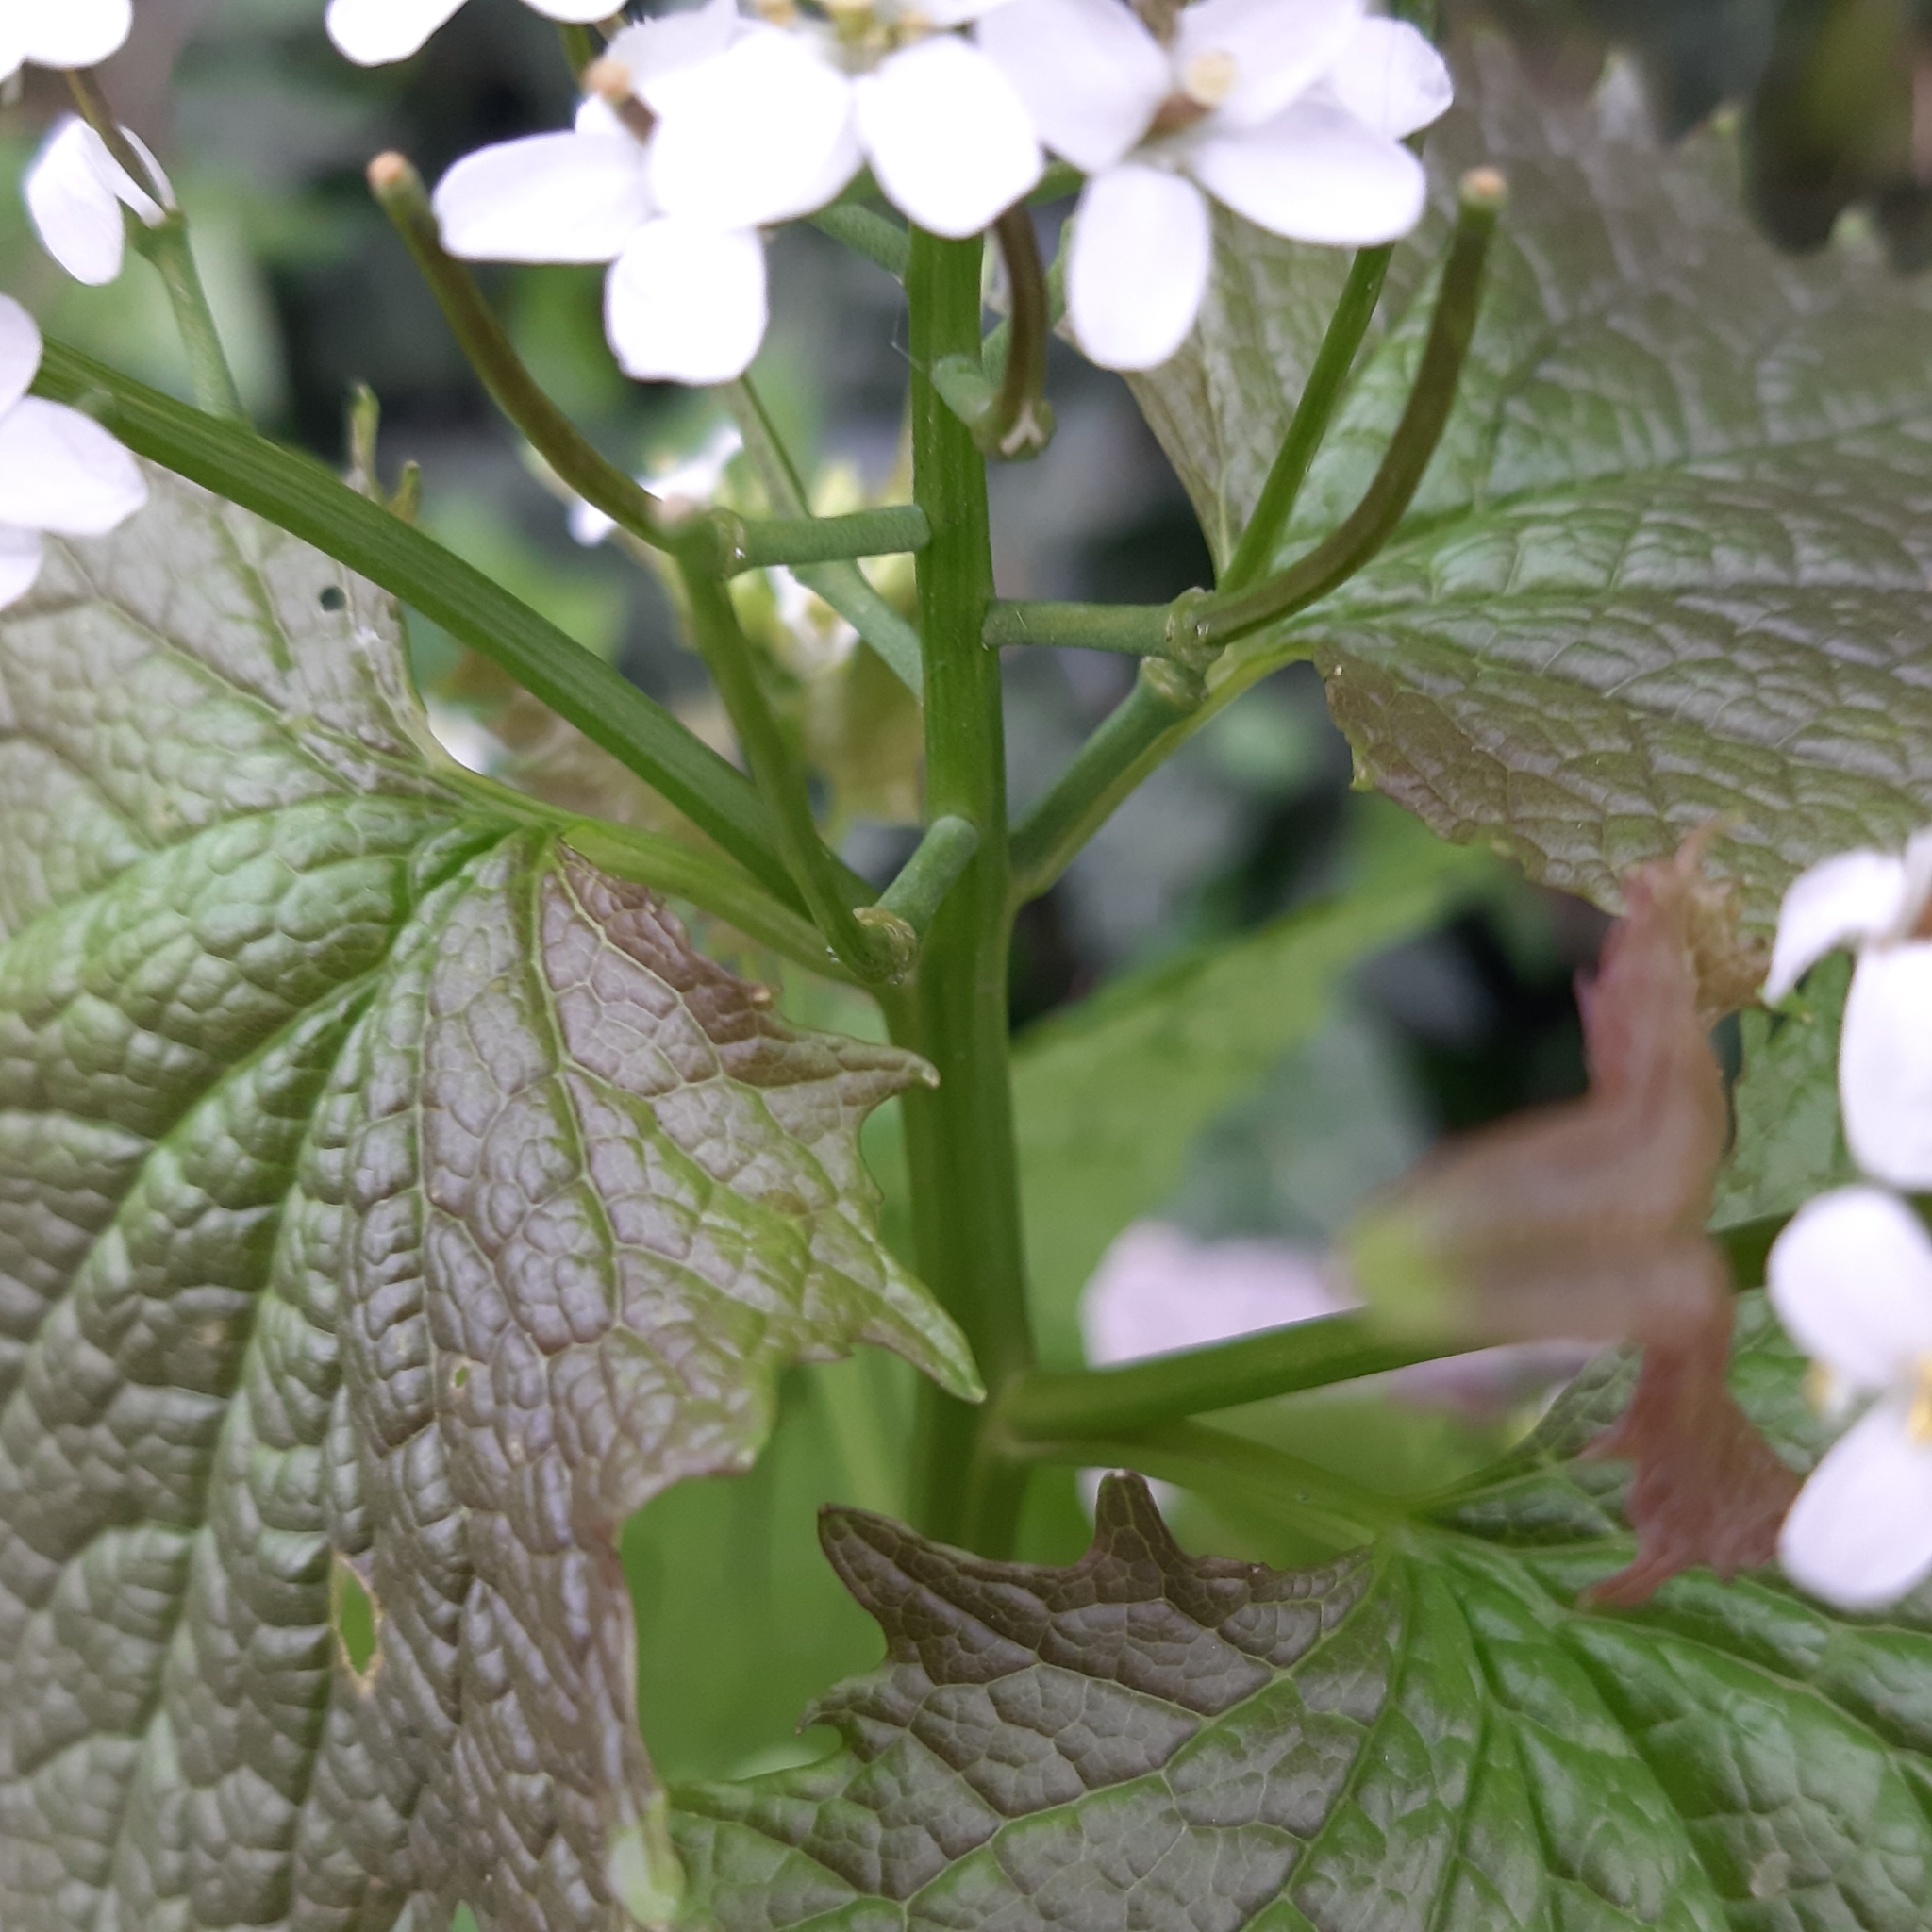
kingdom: Plantae
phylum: Tracheophyta
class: Magnoliopsida
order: Brassicales
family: Brassicaceae
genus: Alliaria
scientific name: Alliaria petiolata
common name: Garlic mustard
